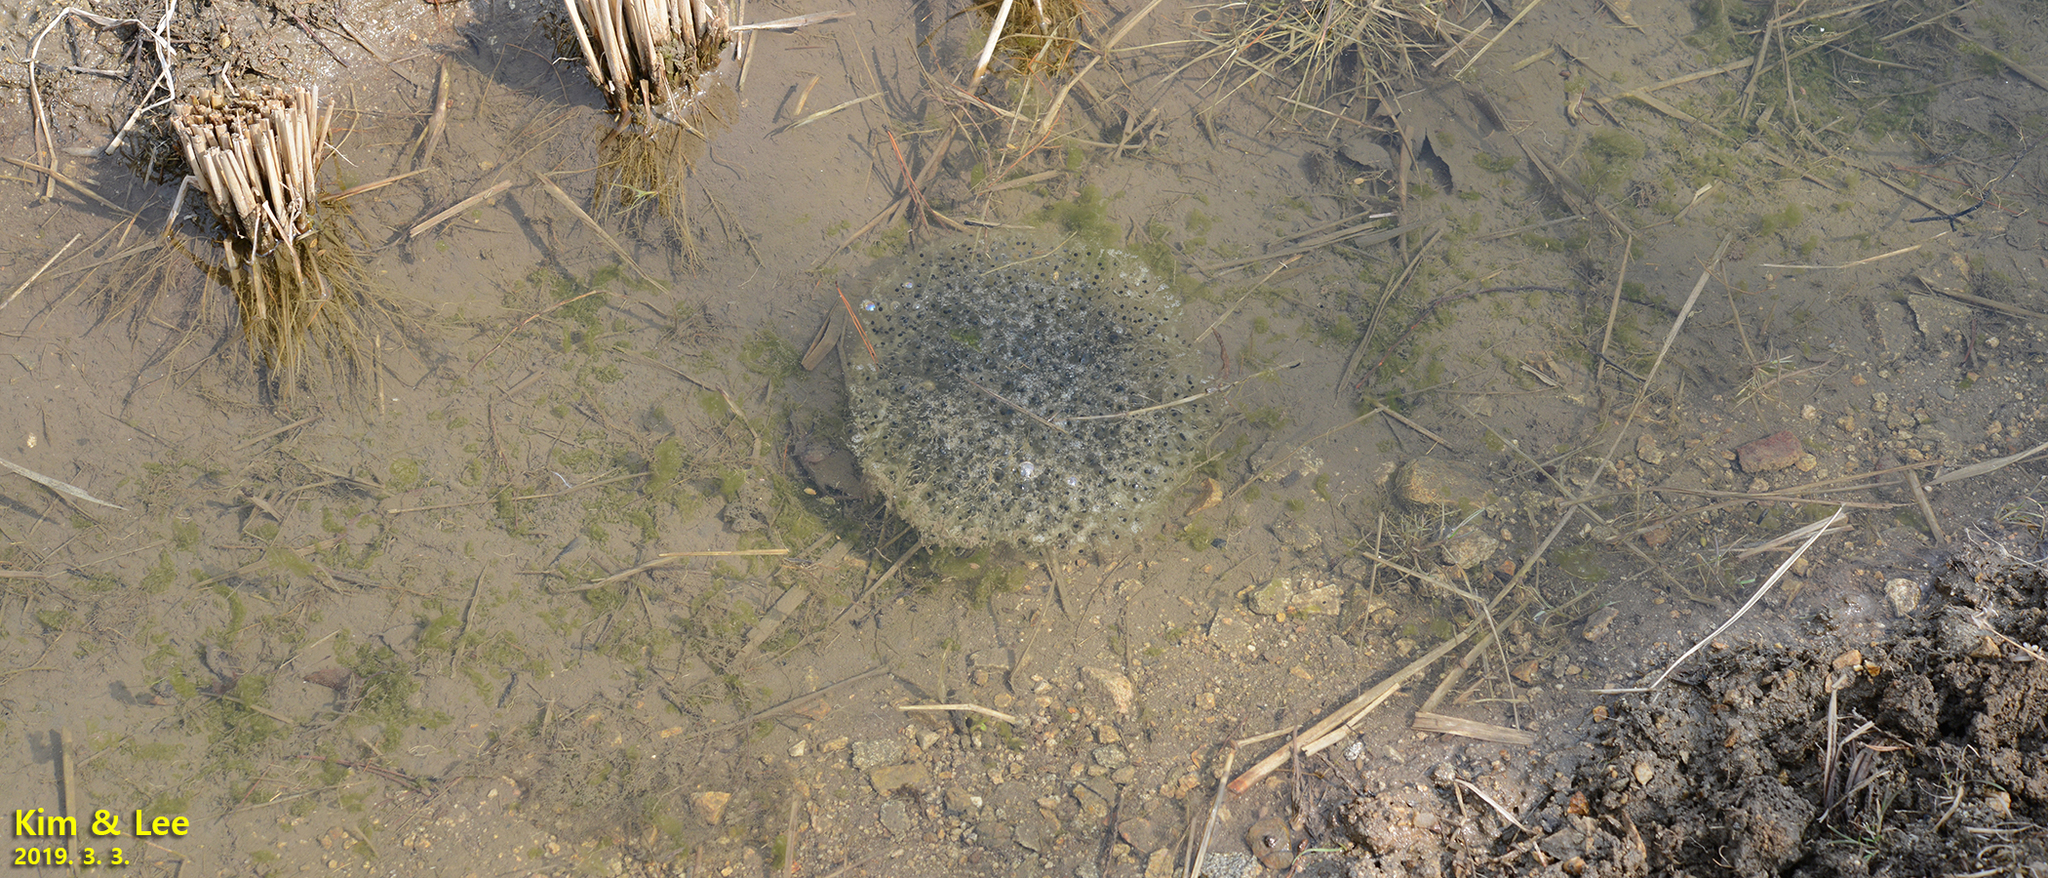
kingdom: Animalia
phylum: Chordata
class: Amphibia
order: Anura
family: Ranidae
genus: Rana
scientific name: Rana uenoi
